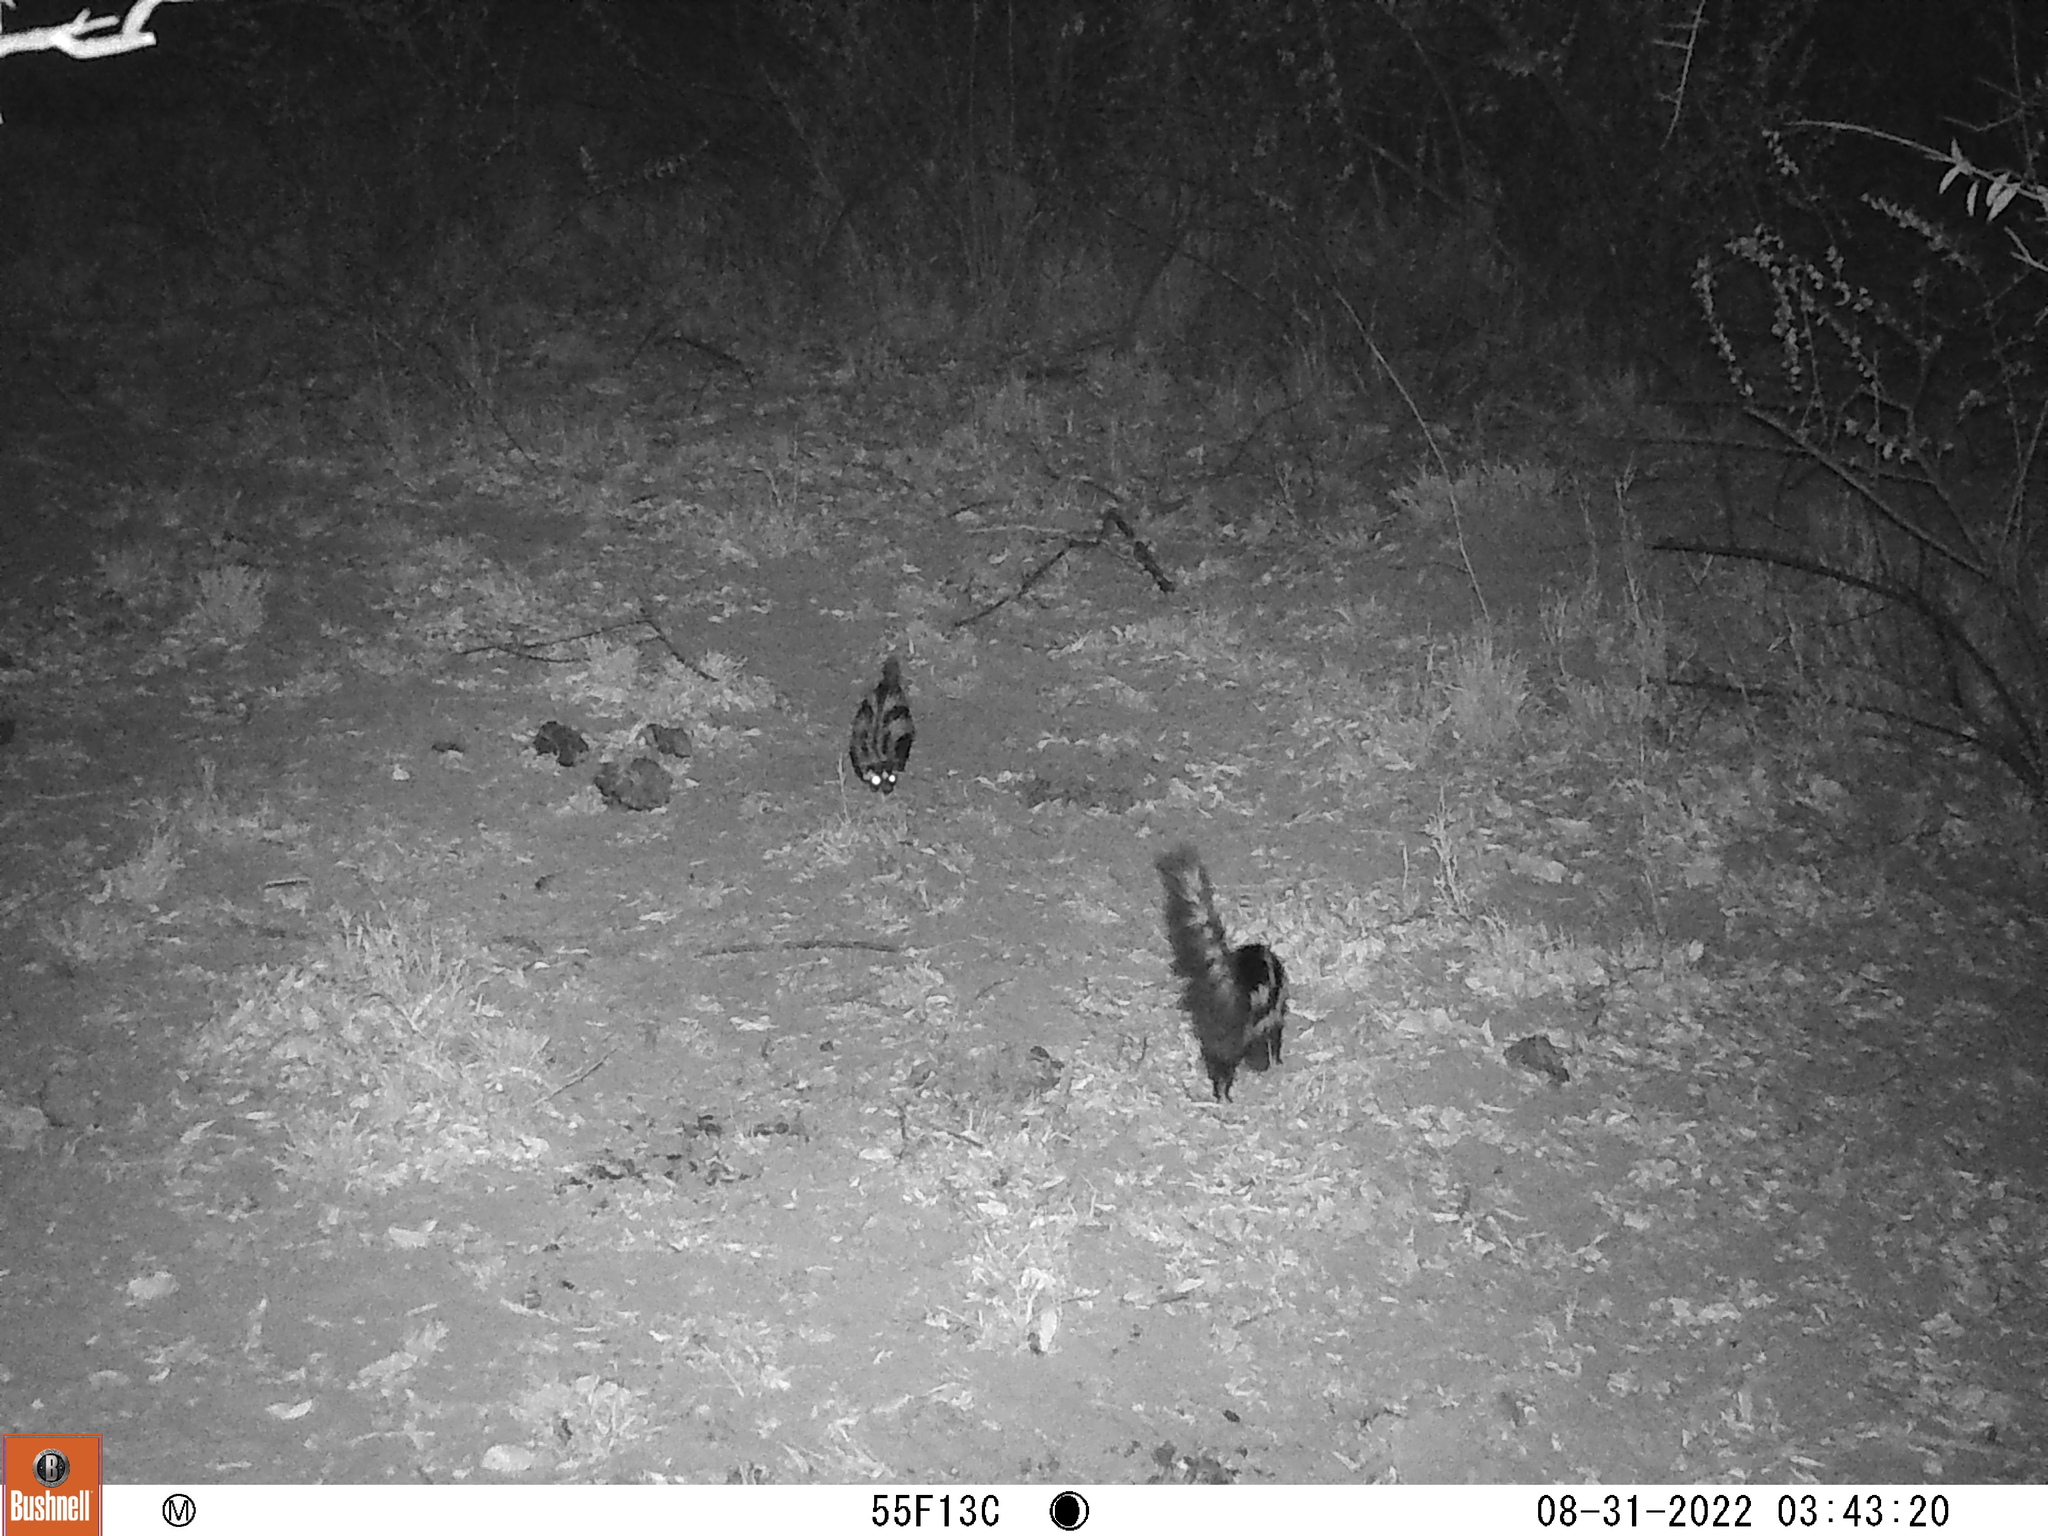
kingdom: Animalia
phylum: Chordata
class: Mammalia
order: Carnivora
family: Mustelidae
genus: Ictonyx
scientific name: Ictonyx striatus
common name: Striped polecat
